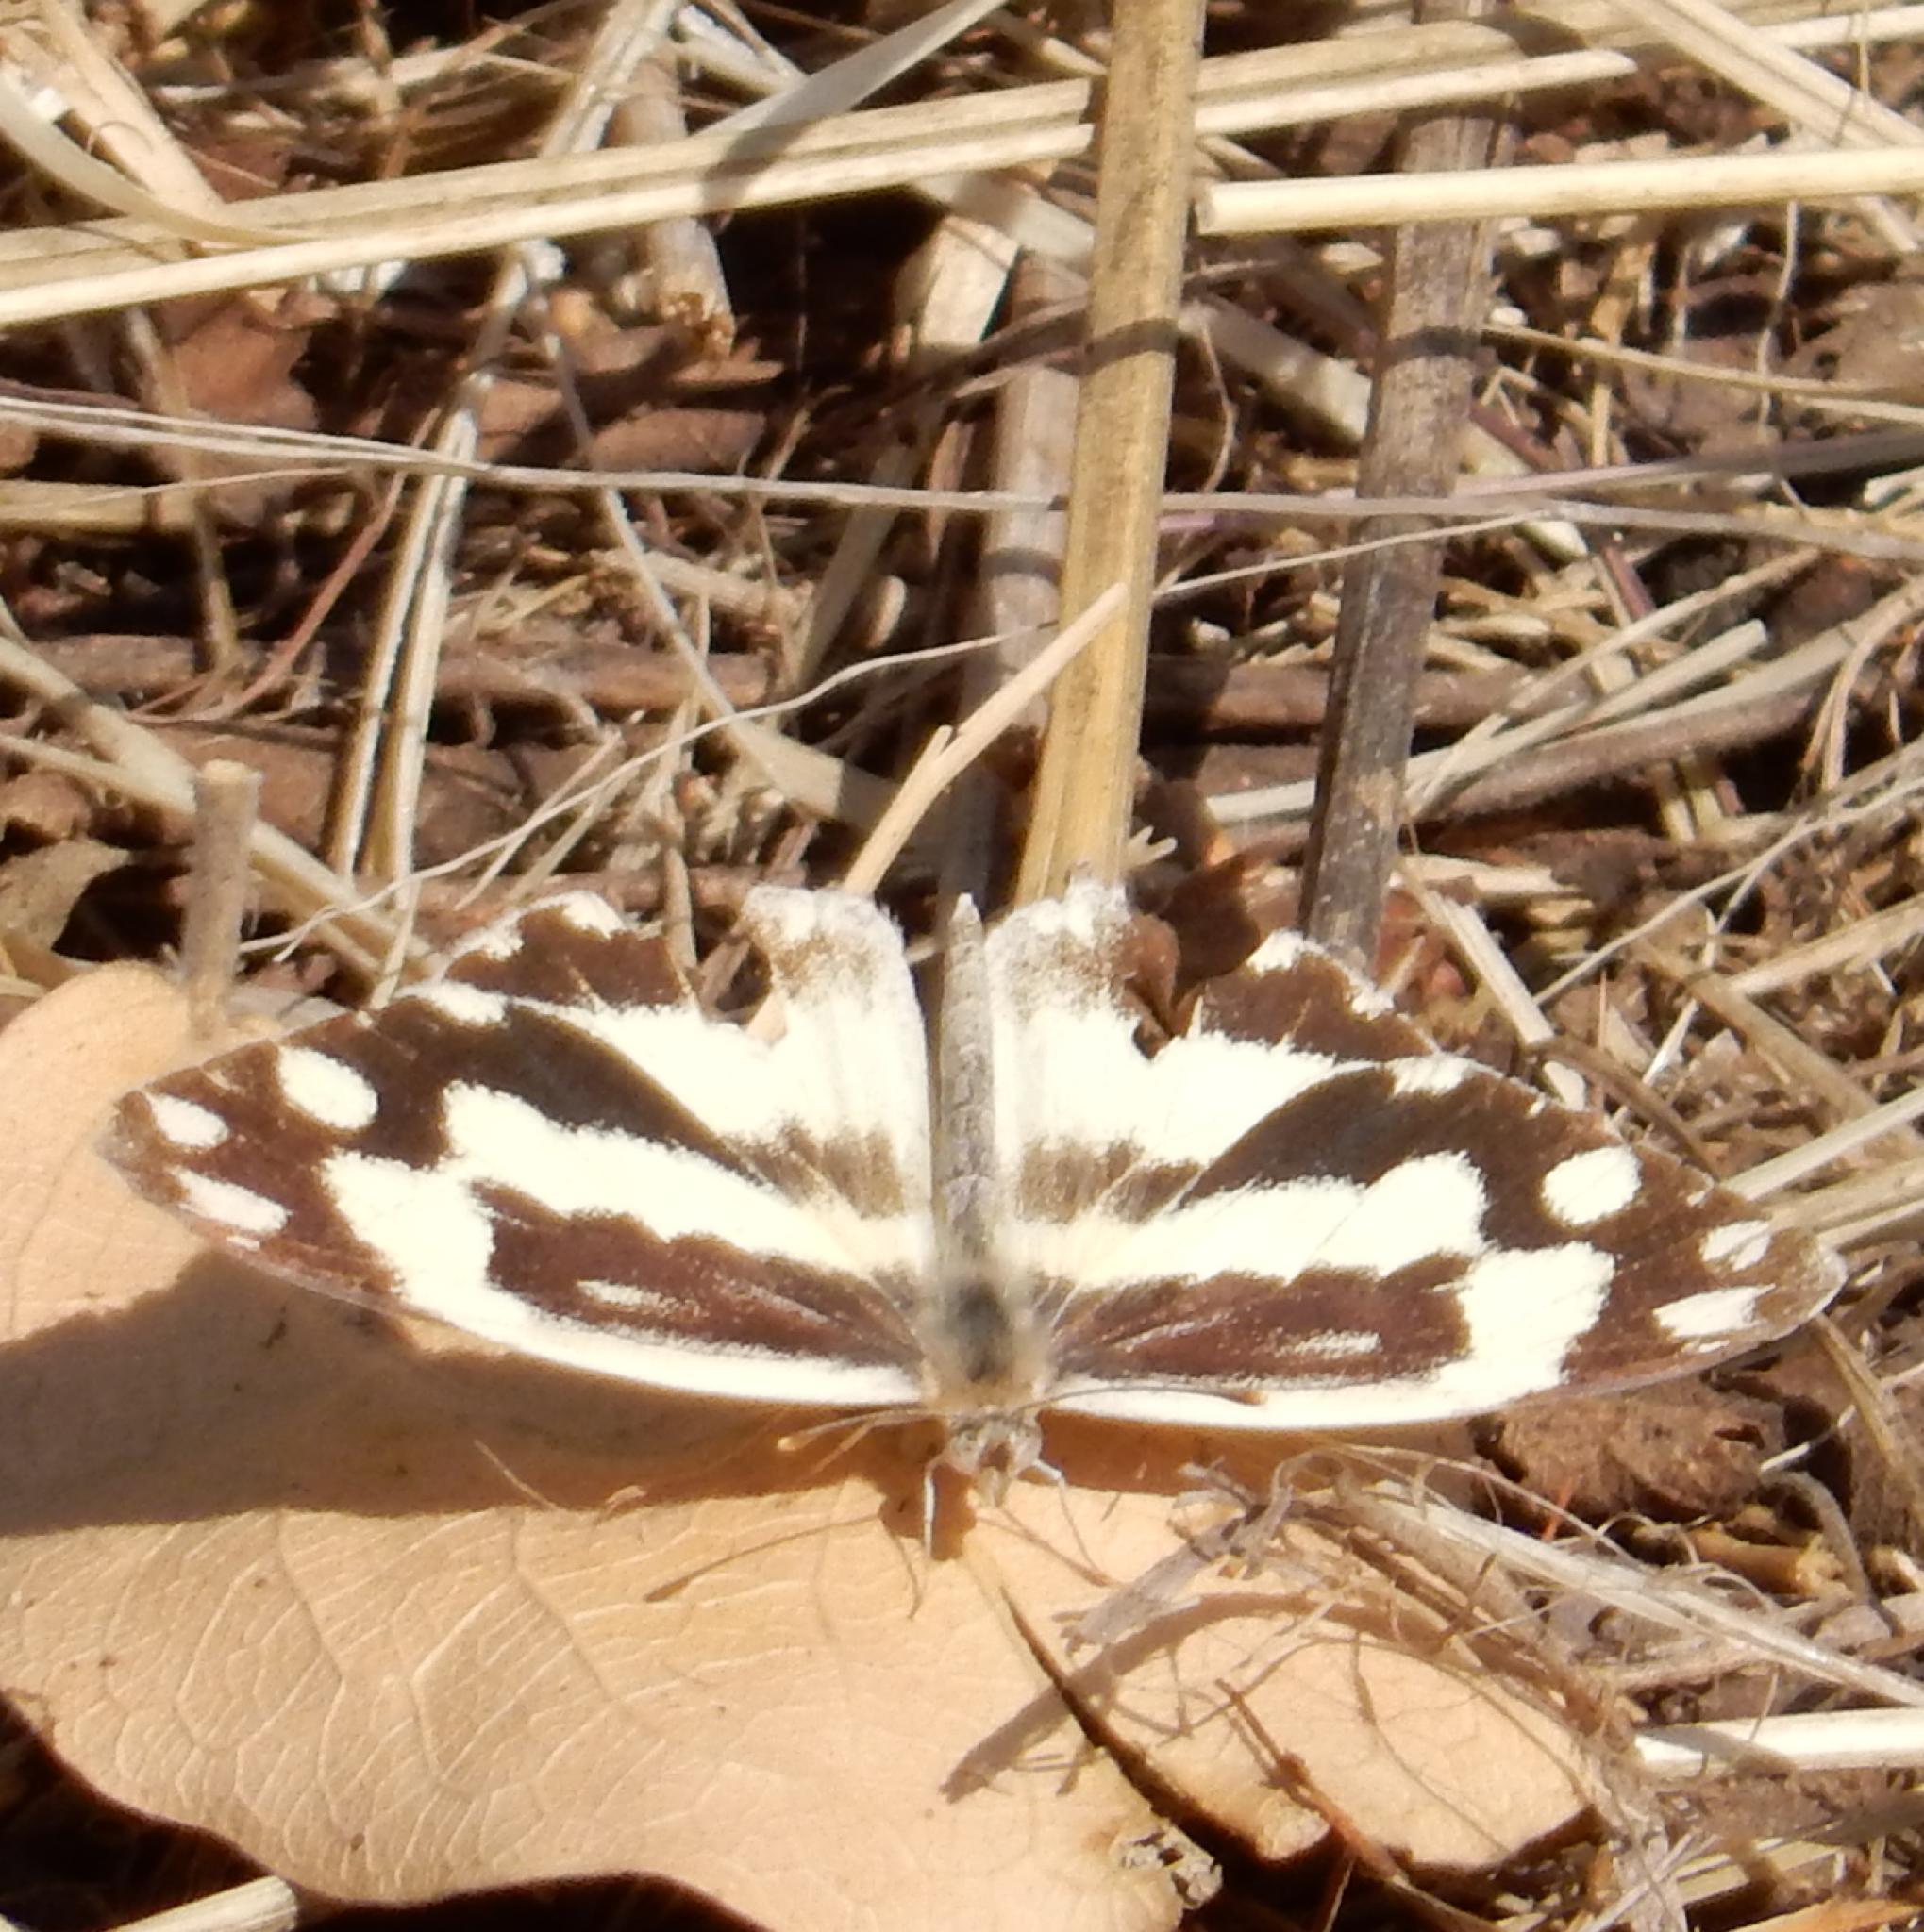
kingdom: Animalia
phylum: Arthropoda
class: Insecta
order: Lepidoptera
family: Pieridae
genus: Pinacopteryx
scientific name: Pinacopteryx eriphia
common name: Zebra white
